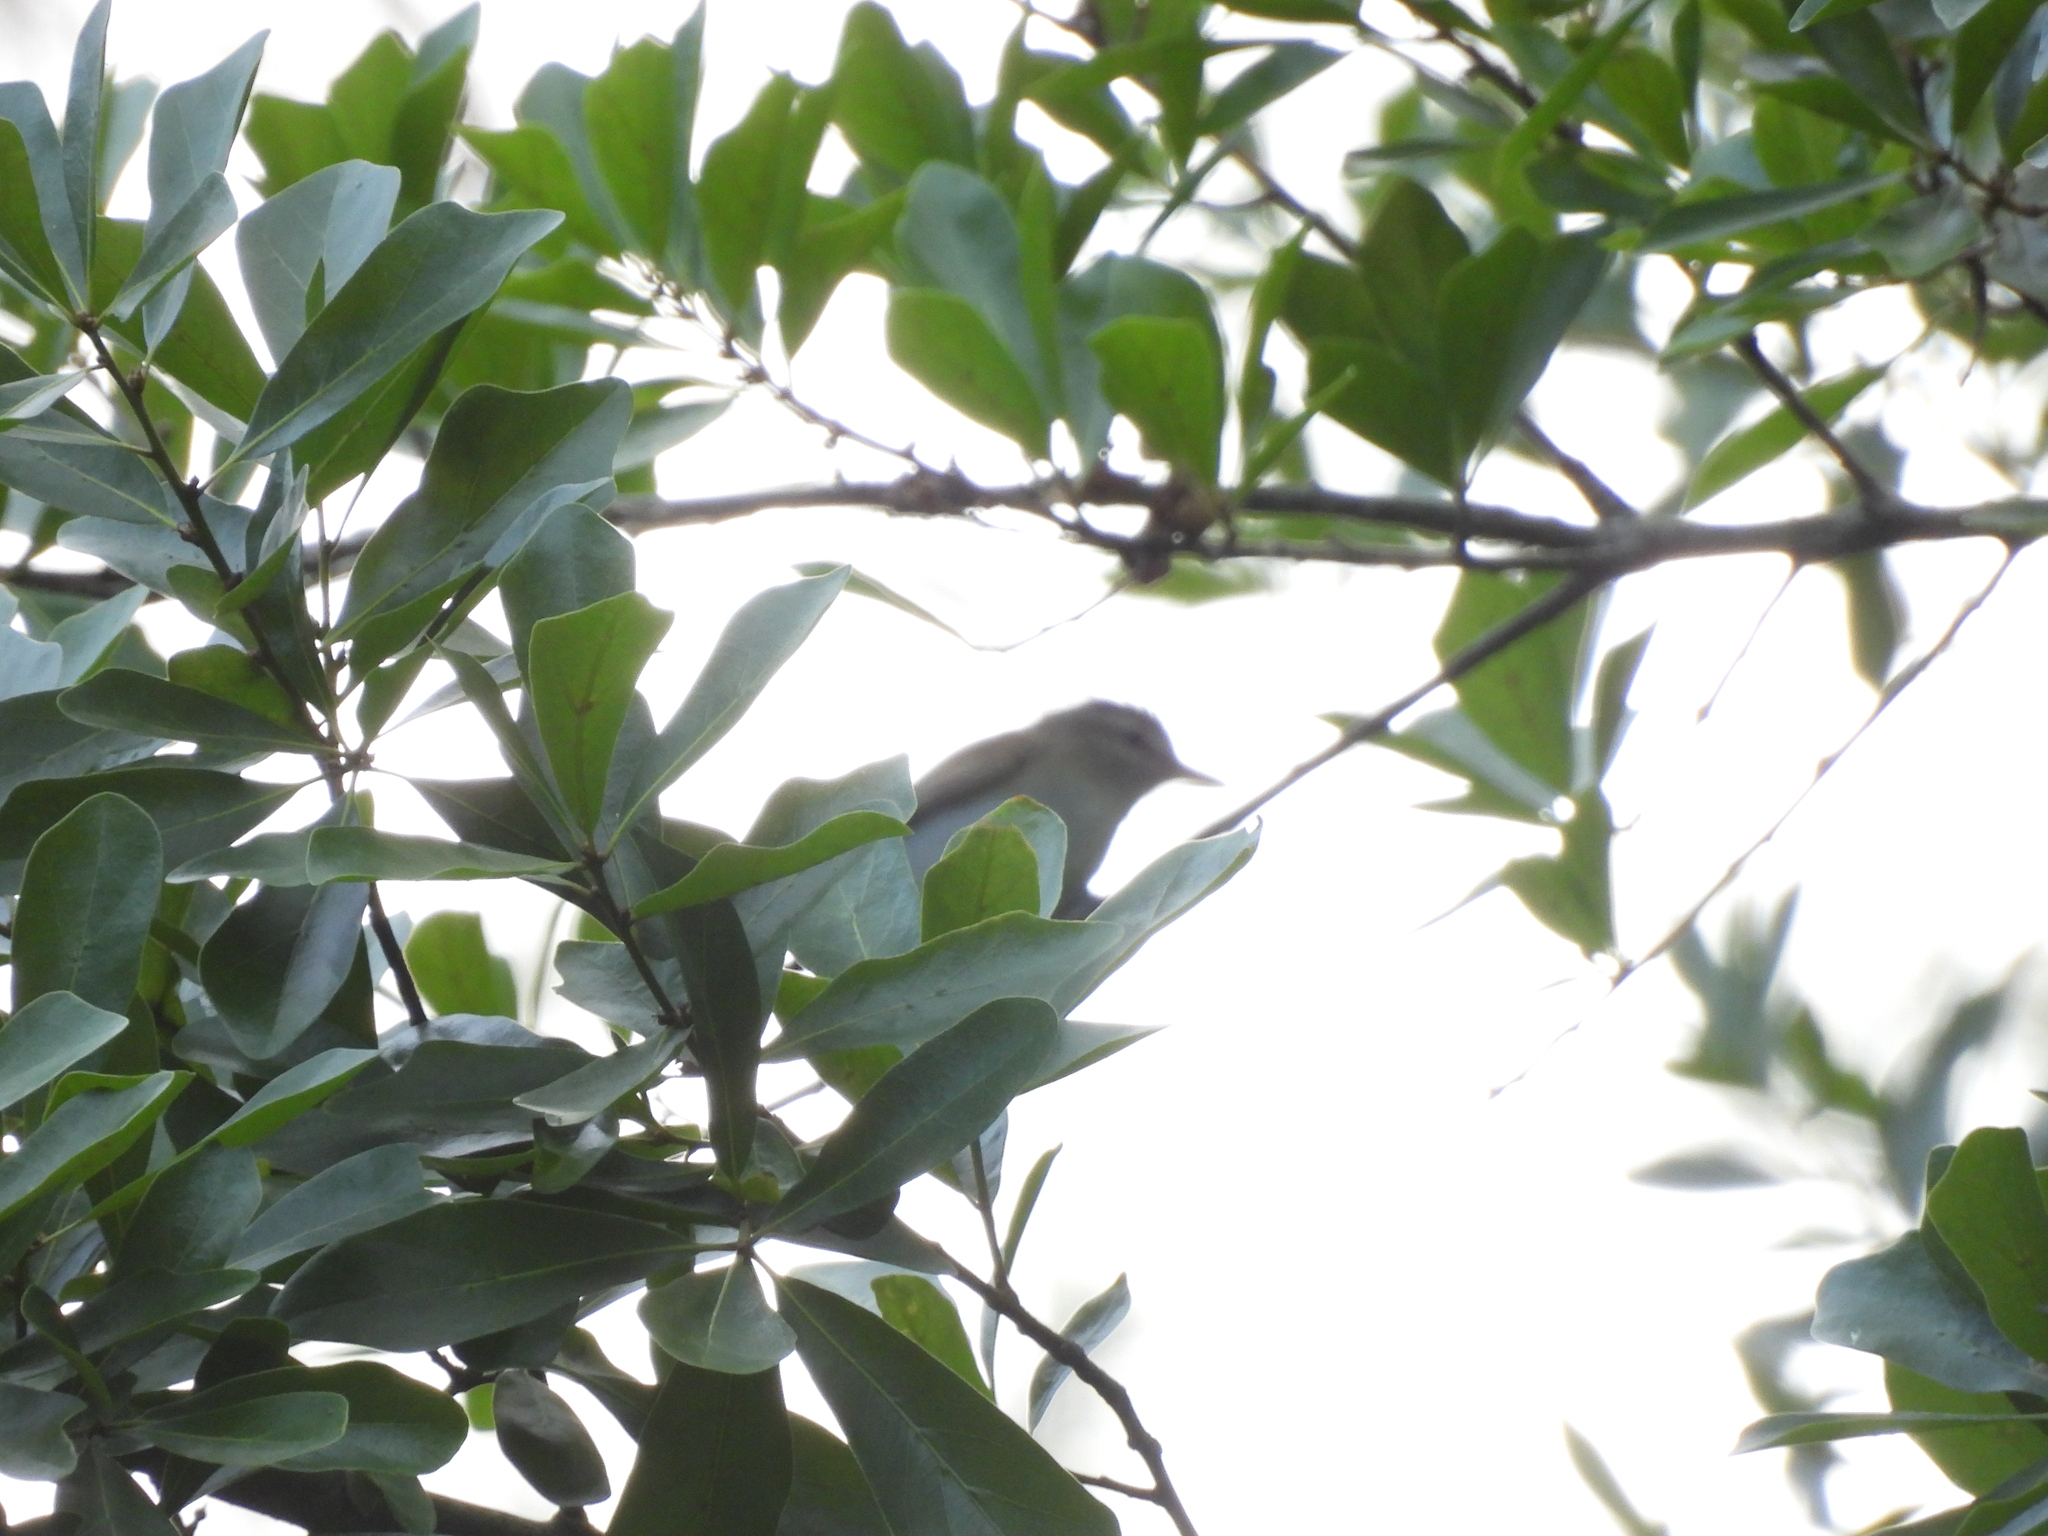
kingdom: Animalia
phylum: Chordata
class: Aves
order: Passeriformes
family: Vireonidae
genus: Vireo
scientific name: Vireo olivaceus
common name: Red-eyed vireo
